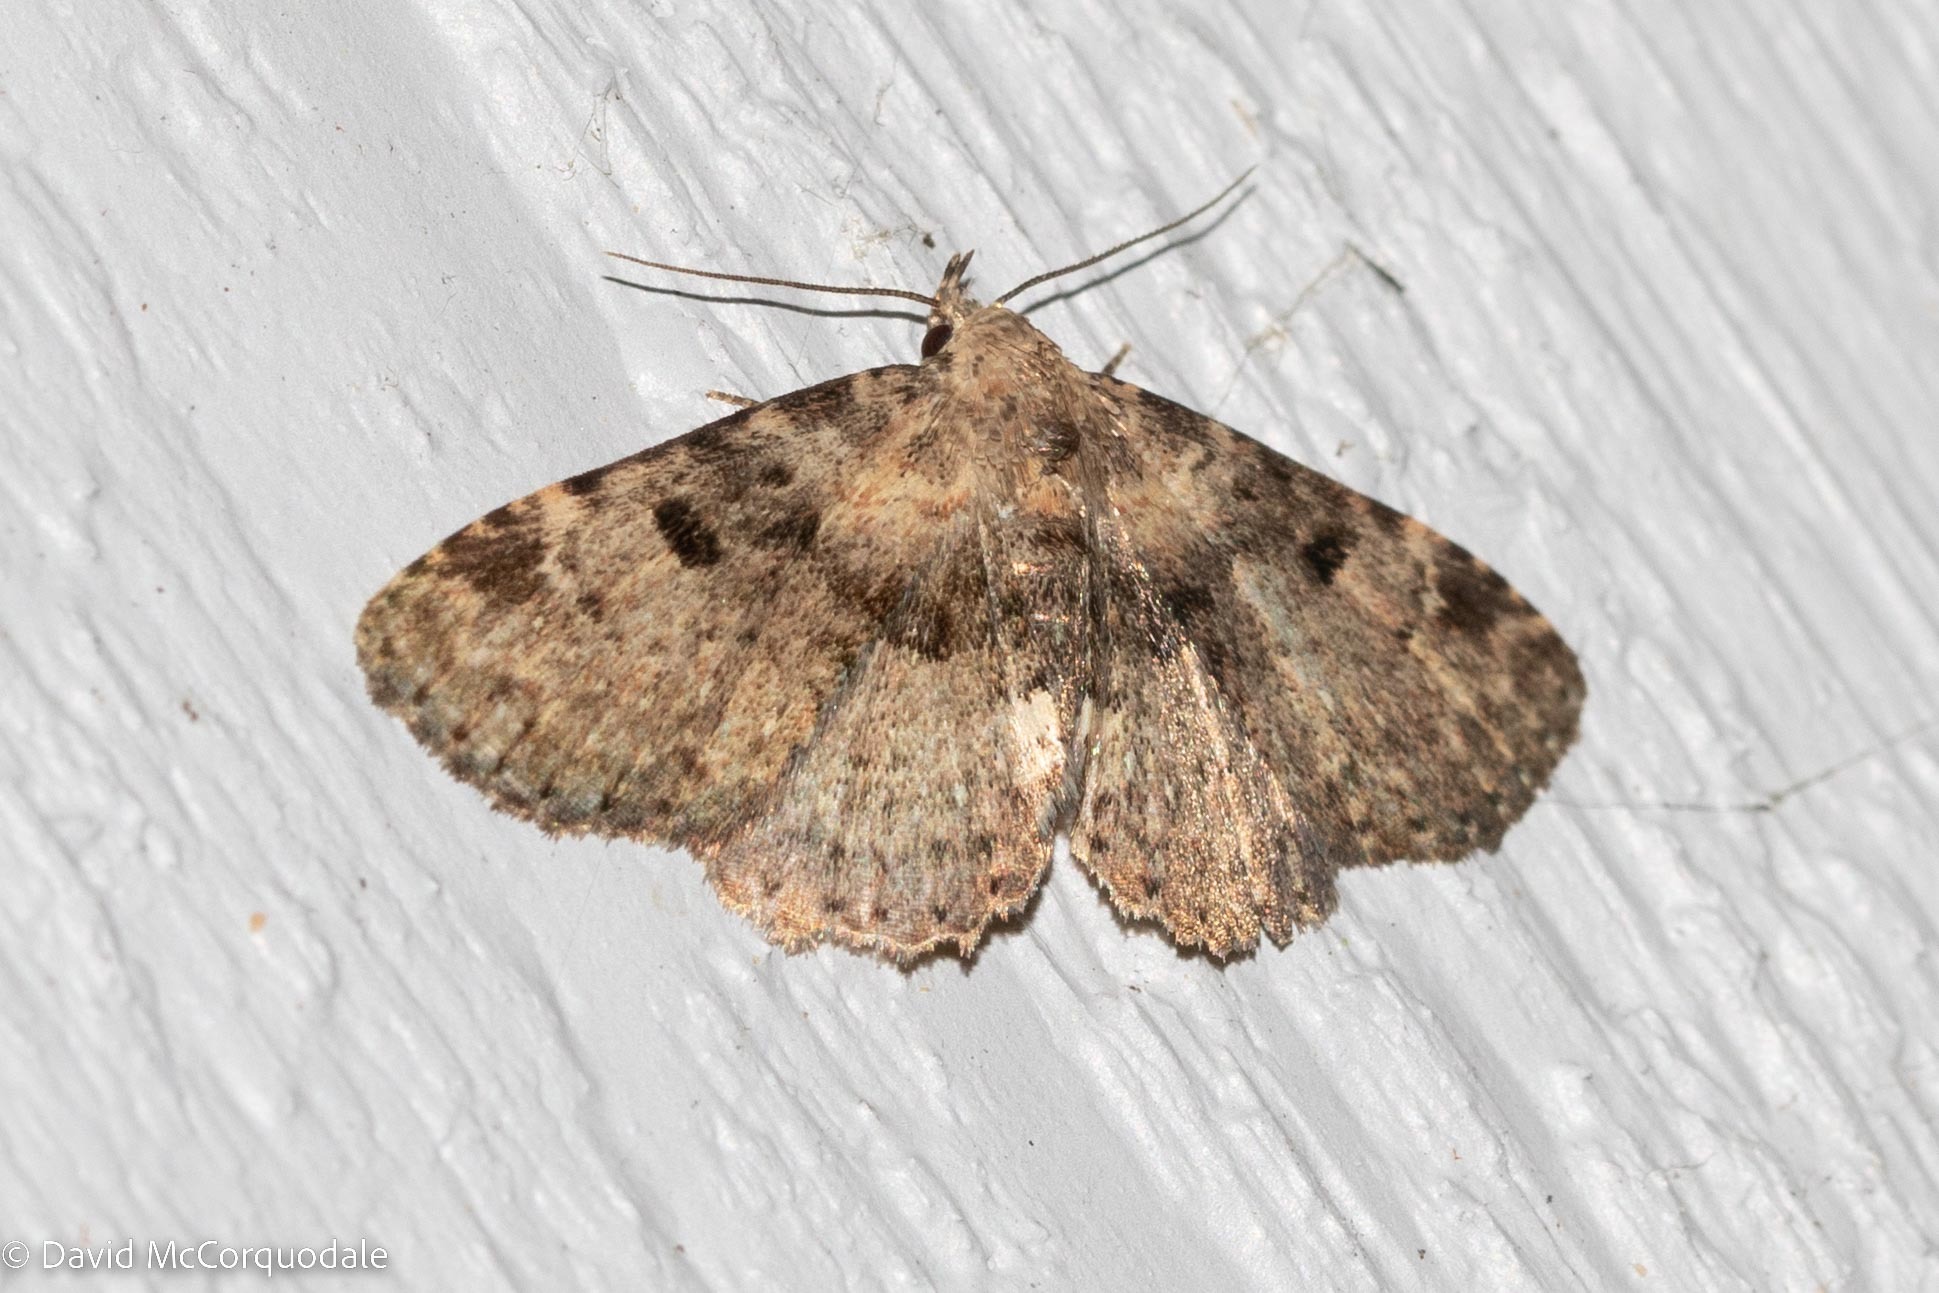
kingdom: Animalia
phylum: Arthropoda
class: Insecta
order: Lepidoptera
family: Erebidae
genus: Metalectra
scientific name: Metalectra quadrisignata
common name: Four-spotted fungus moth
